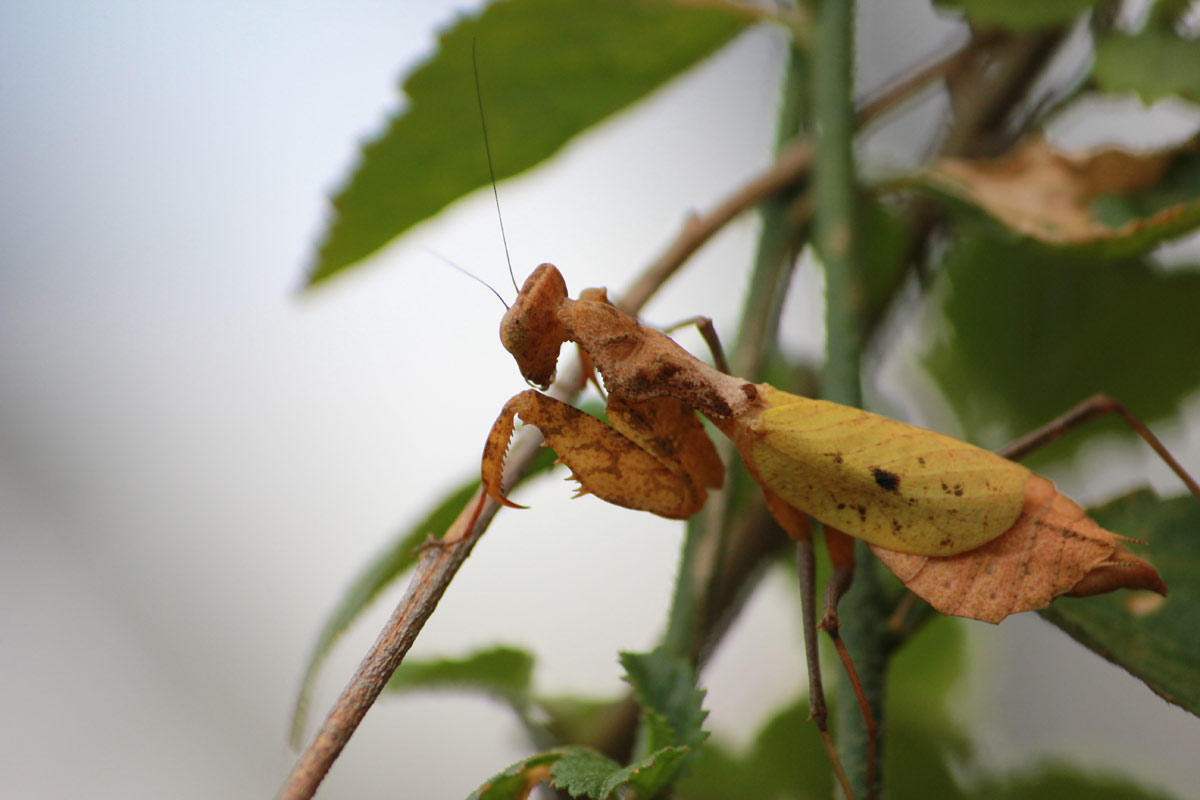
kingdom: Animalia
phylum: Arthropoda
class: Insecta
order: Mantodea
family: Chroicopteridae
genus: Dystacta
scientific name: Dystacta alticeps
